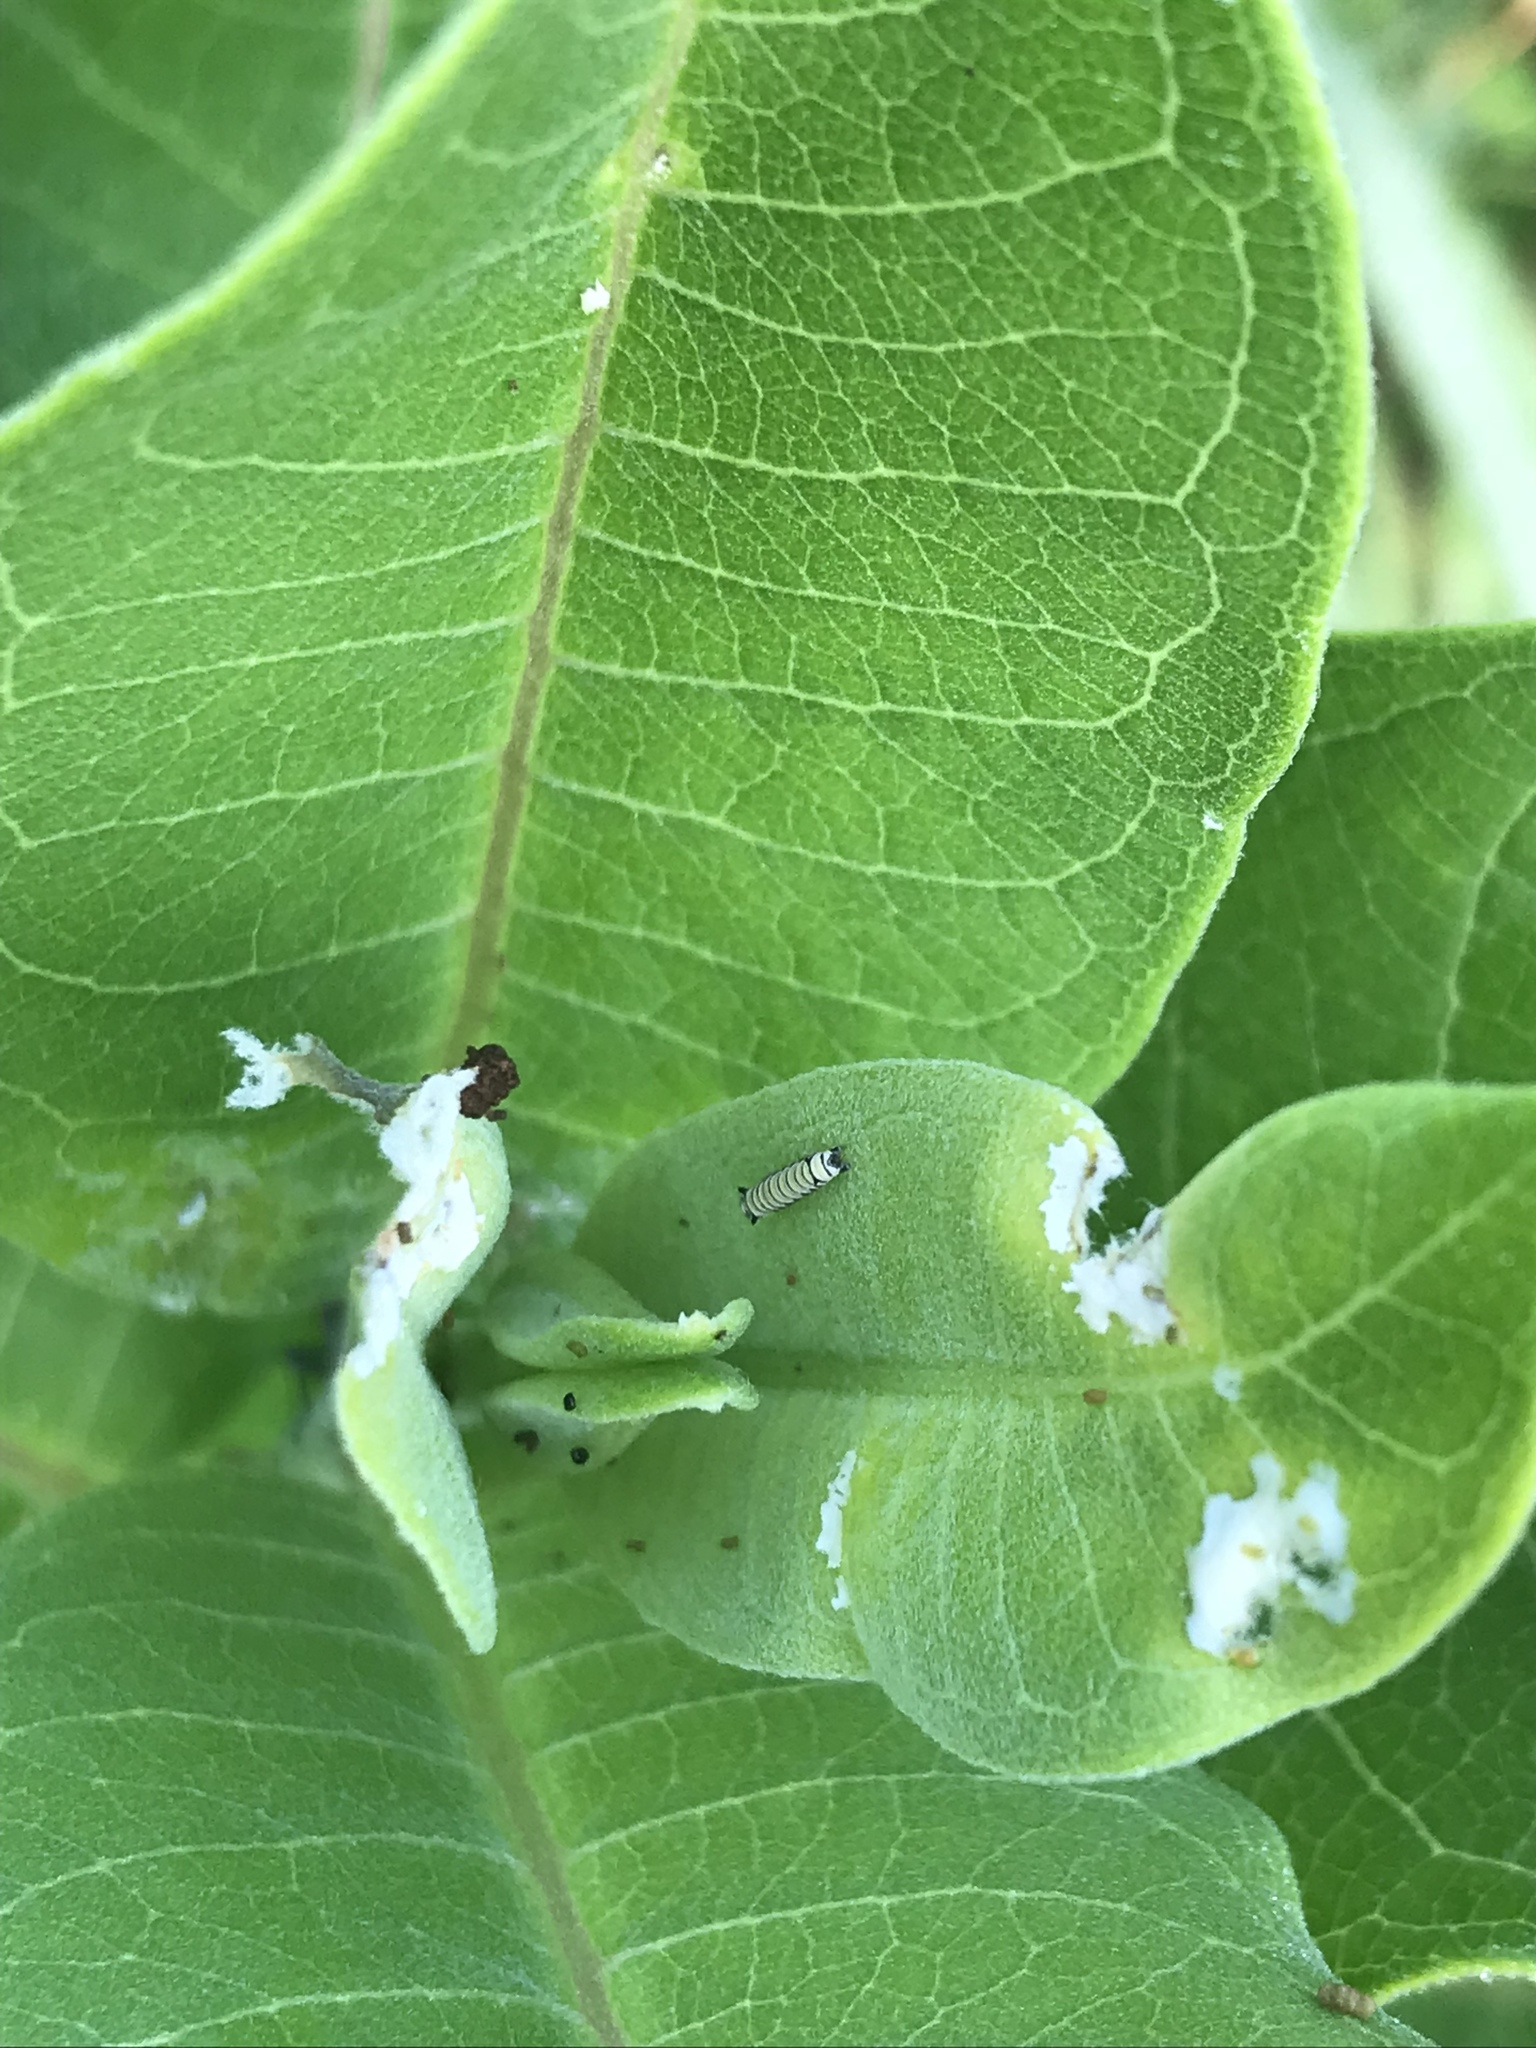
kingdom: Animalia
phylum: Arthropoda
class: Insecta
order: Lepidoptera
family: Nymphalidae
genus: Danaus
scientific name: Danaus plexippus
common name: Monarch
